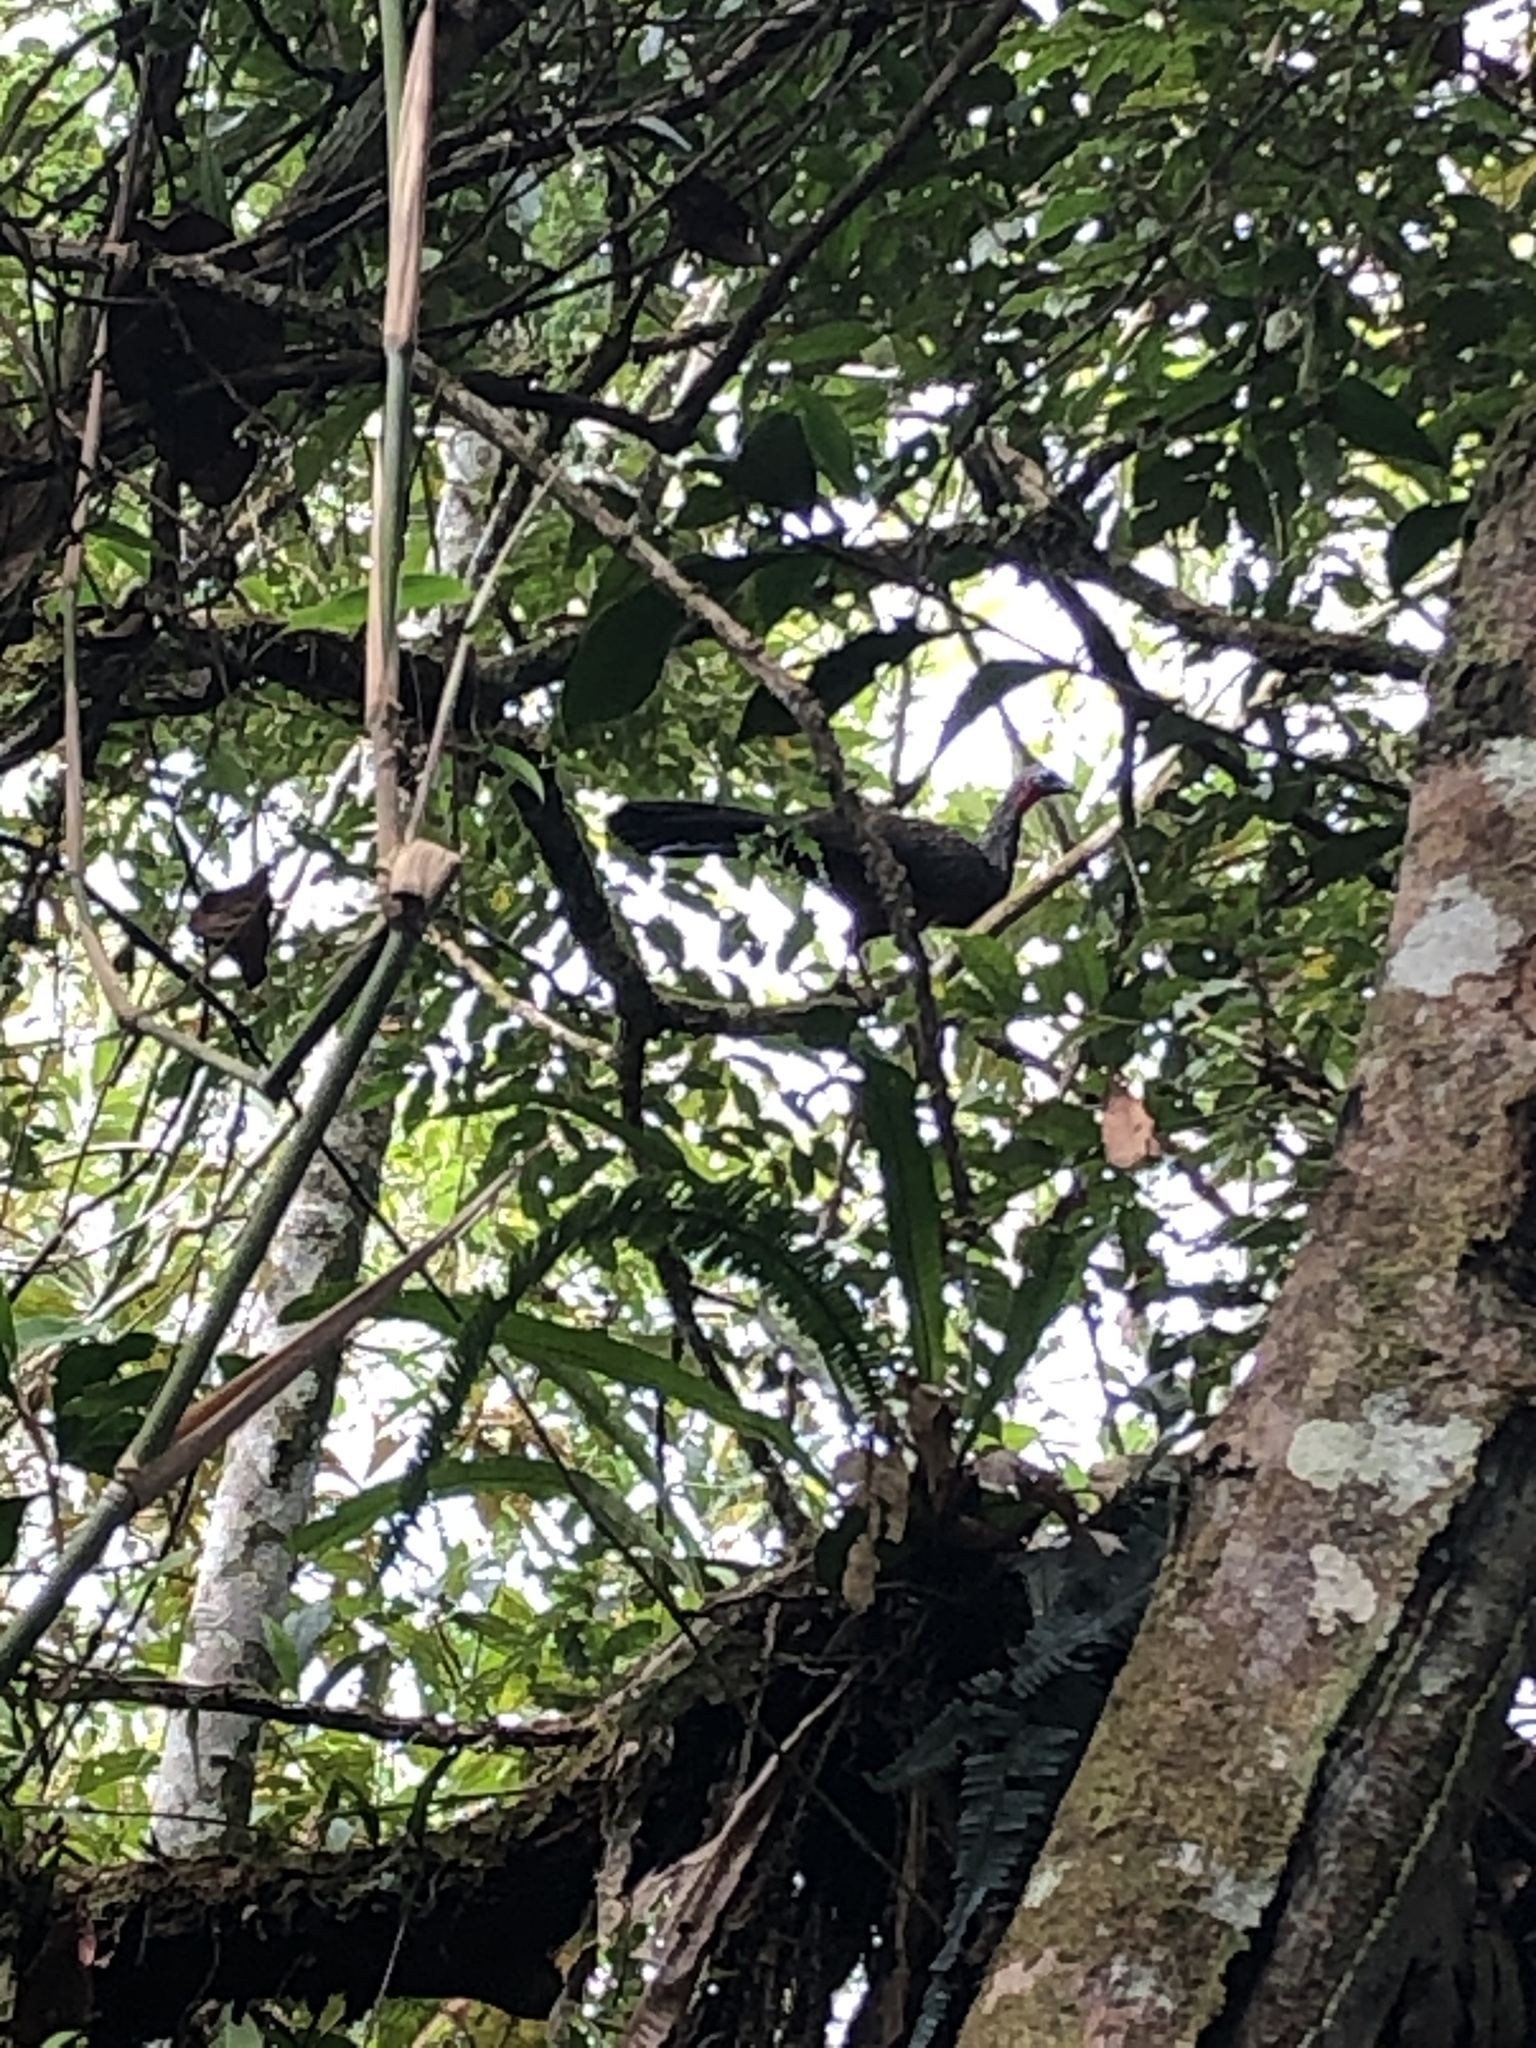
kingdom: Animalia
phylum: Chordata
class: Aves
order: Galliformes
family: Cracidae
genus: Penelope
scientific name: Penelope jacquacu
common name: Spix's guan
